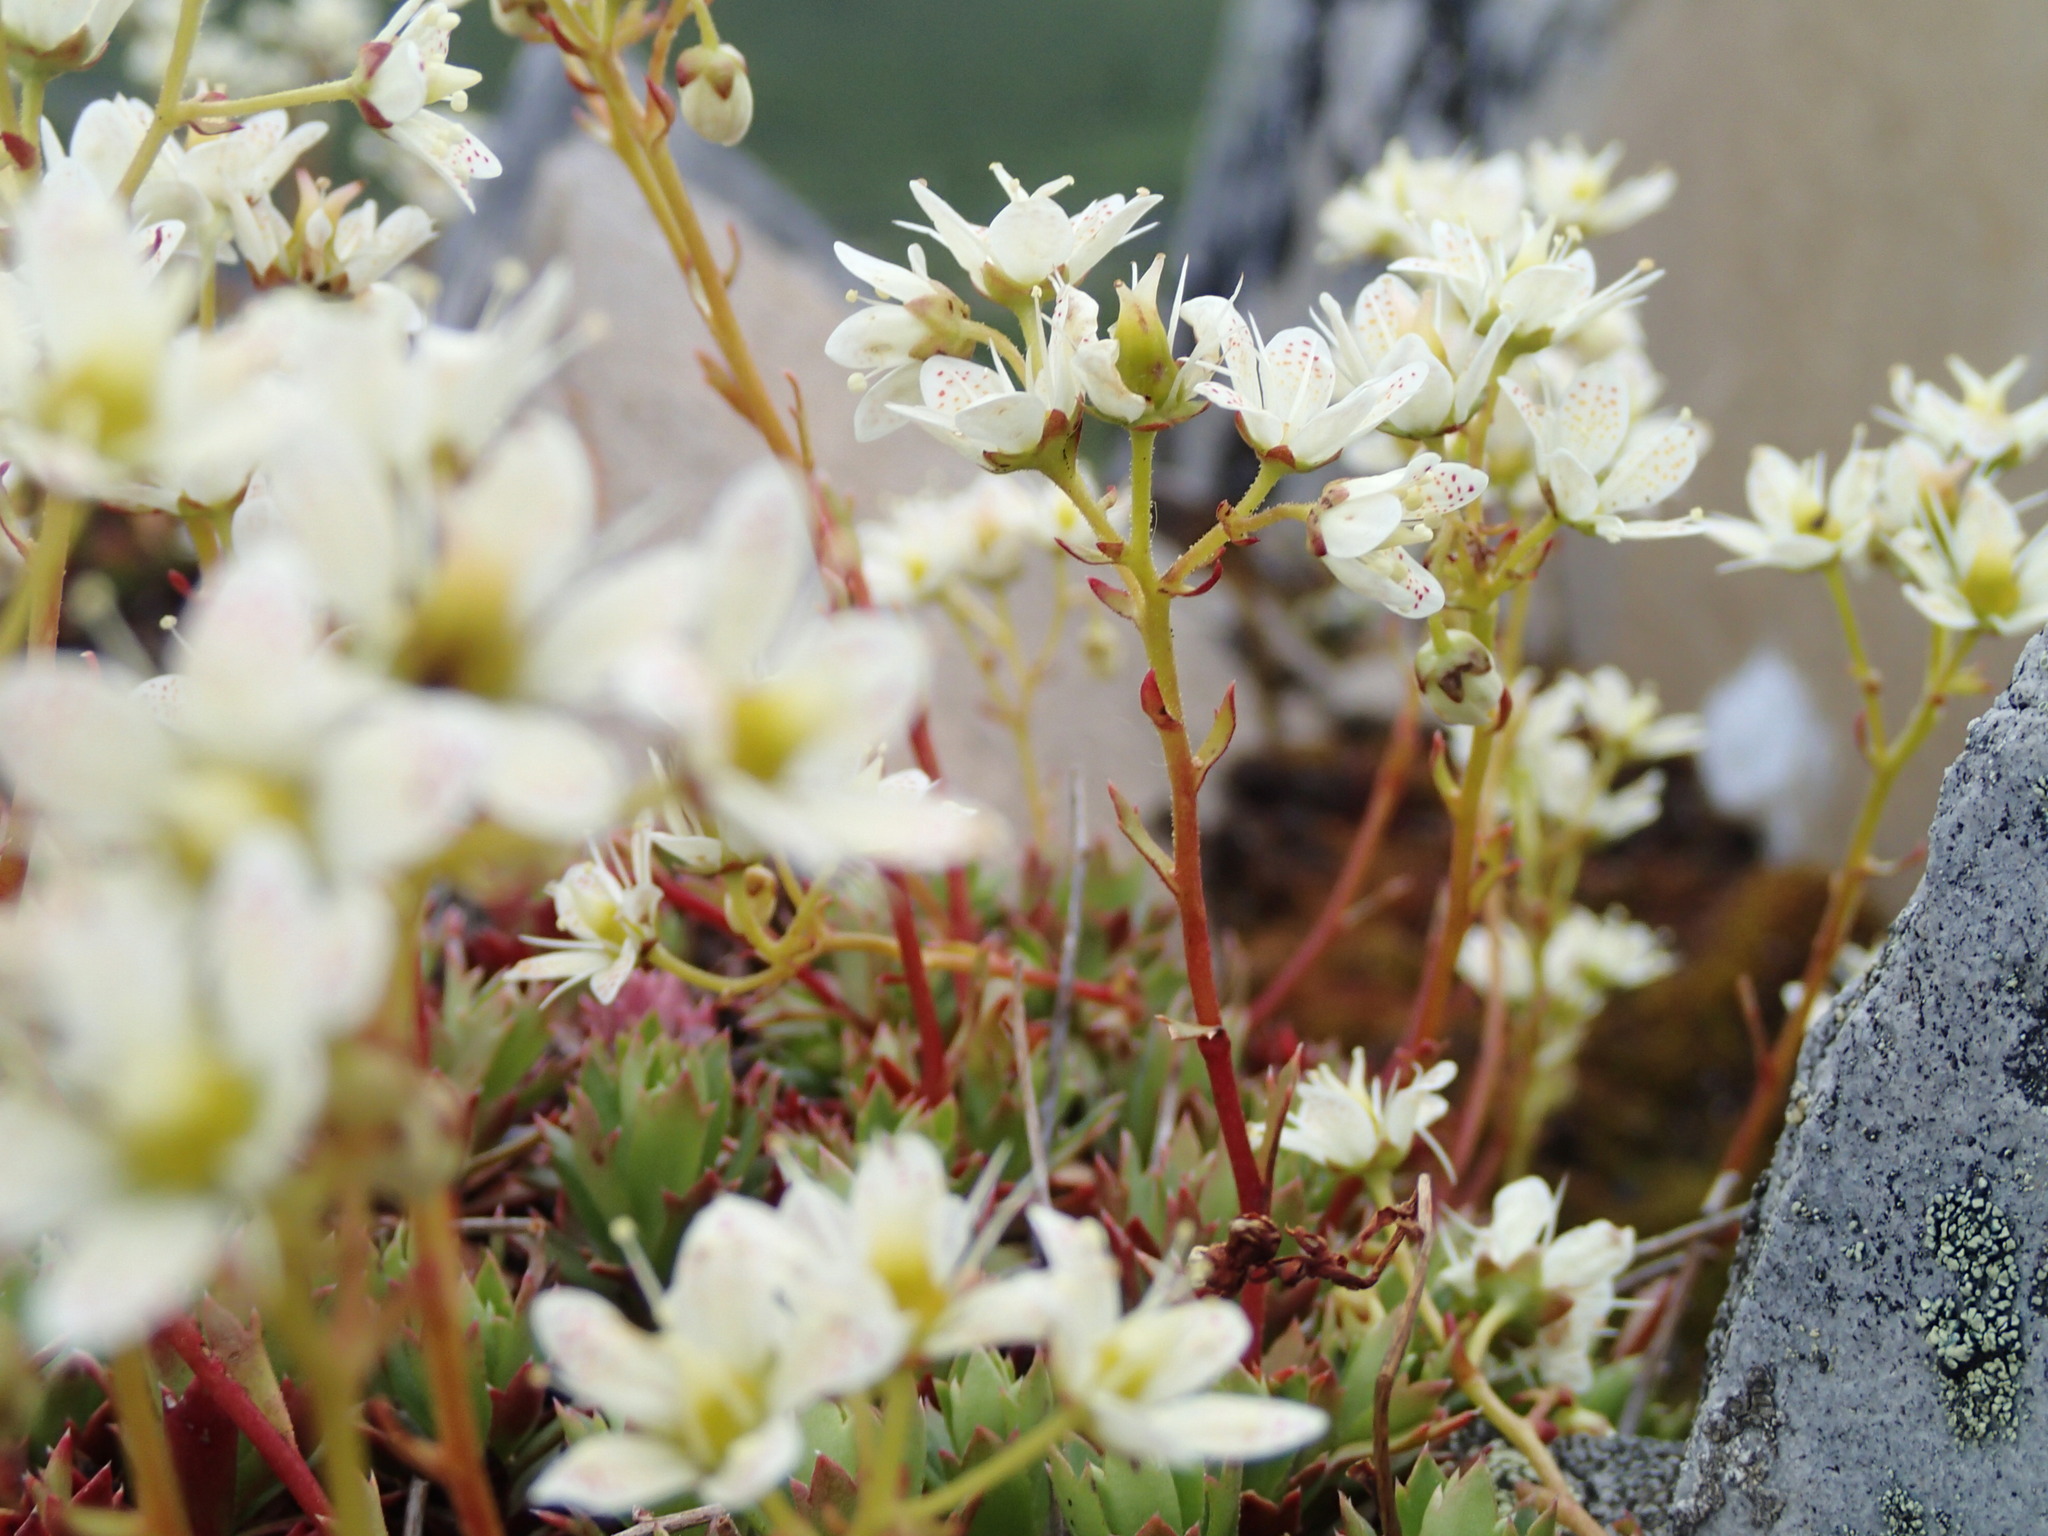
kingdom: Plantae
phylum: Tracheophyta
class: Magnoliopsida
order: Saxifragales
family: Saxifragaceae
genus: Saxifraga
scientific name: Saxifraga tricuspidata
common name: Prickly saxifrage
